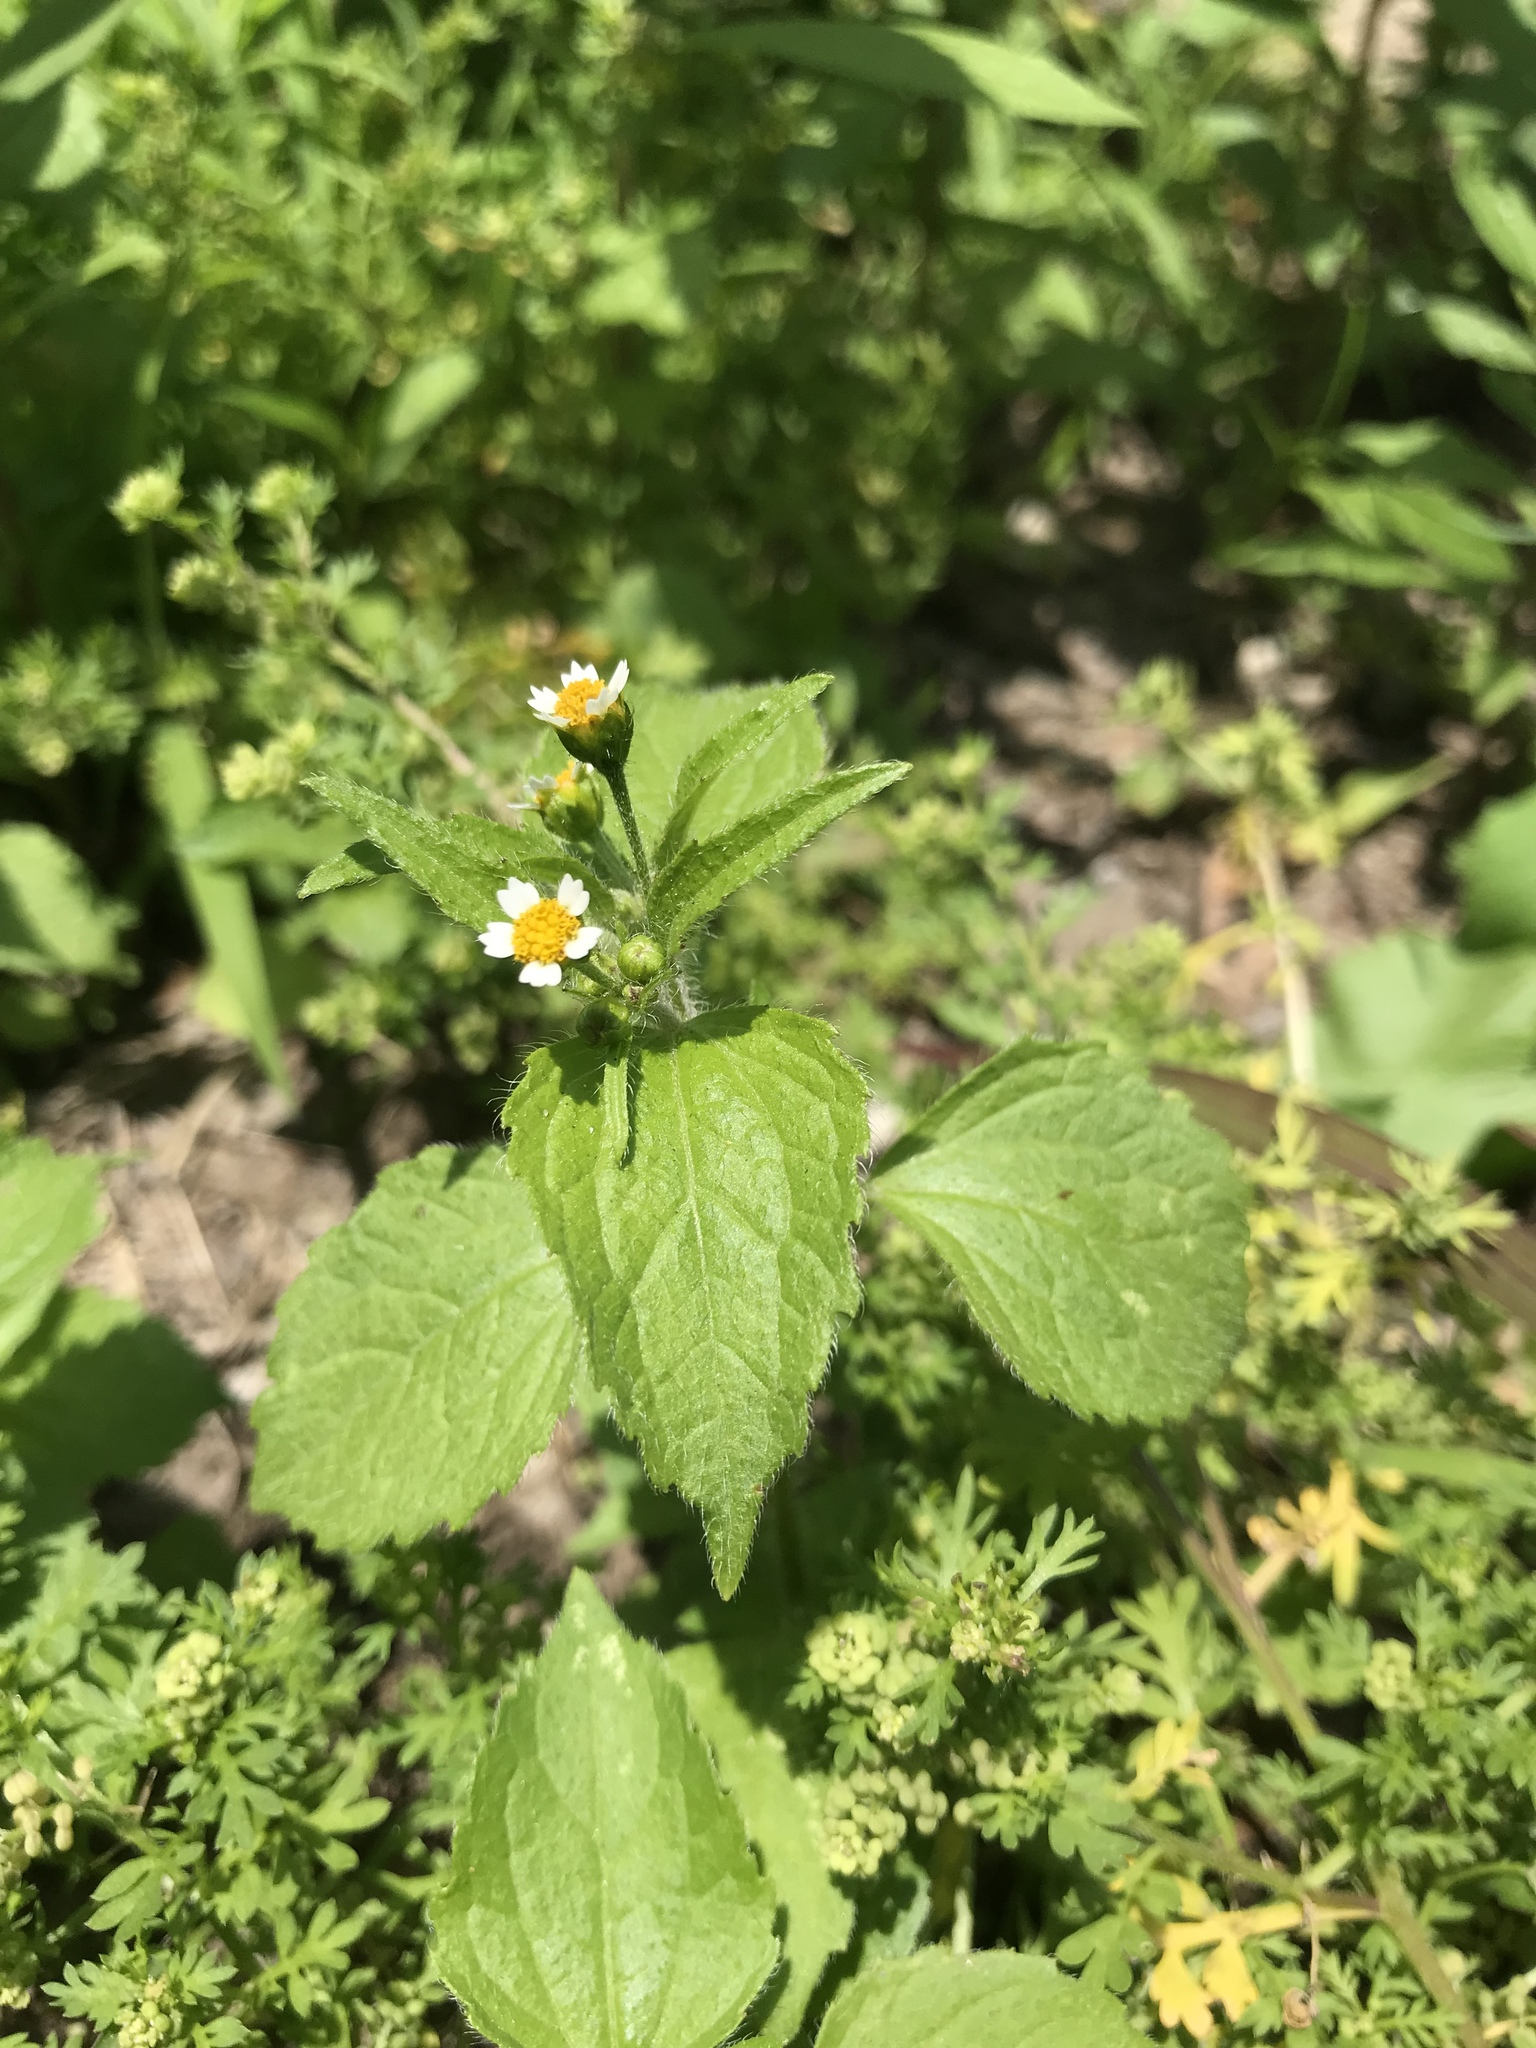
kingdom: Plantae
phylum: Tracheophyta
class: Magnoliopsida
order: Asterales
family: Asteraceae
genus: Galinsoga
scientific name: Galinsoga quadriradiata
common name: Shaggy soldier
